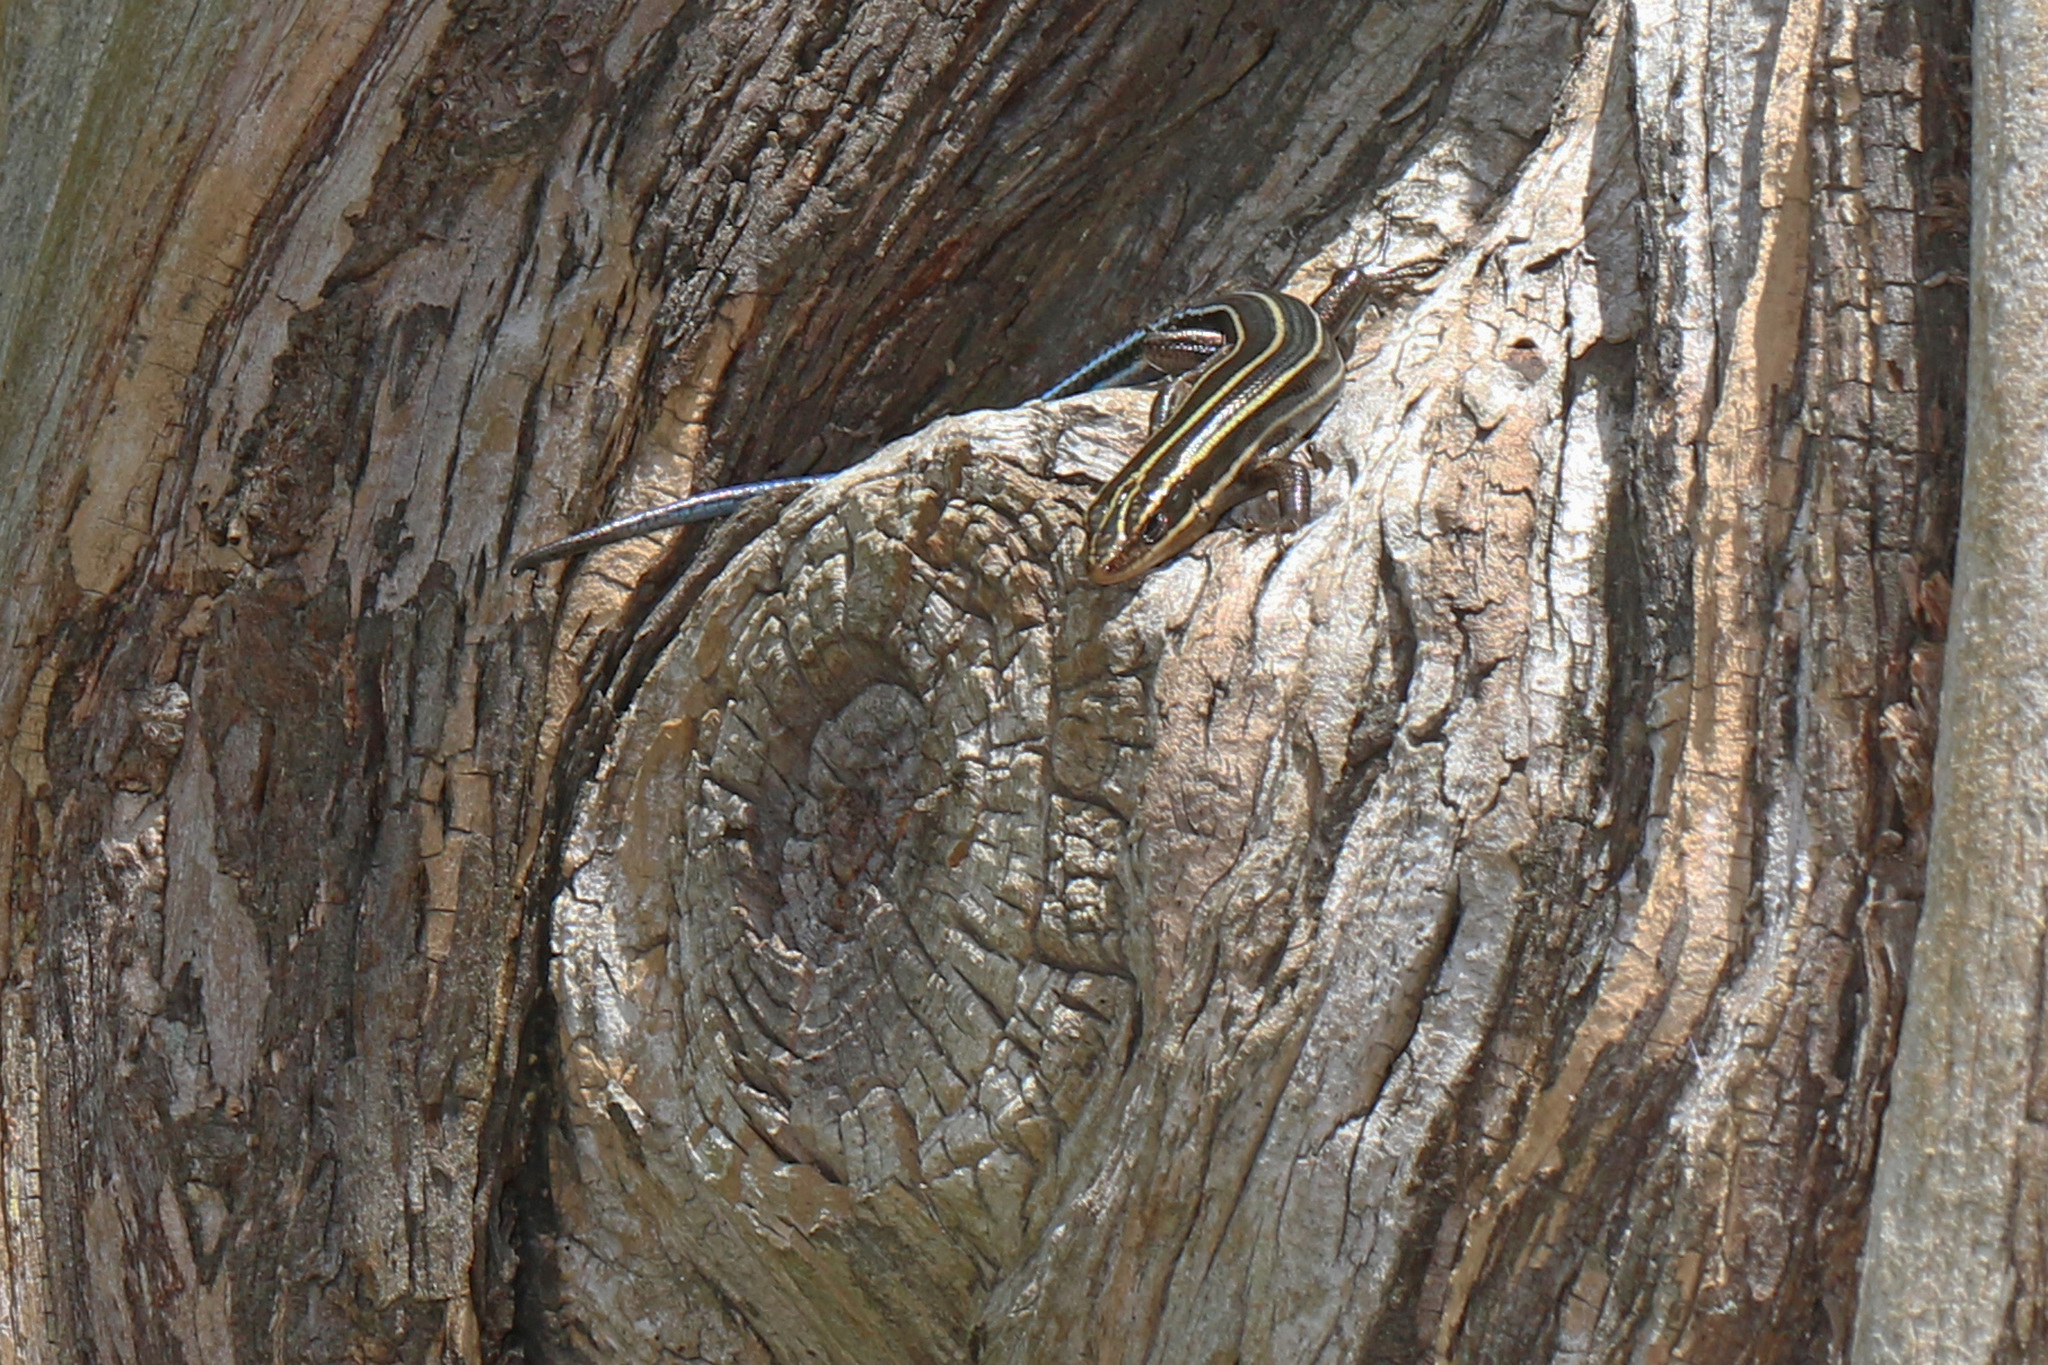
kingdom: Animalia
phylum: Chordata
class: Squamata
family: Scincidae
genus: Plestiodon
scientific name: Plestiodon fasciatus
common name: Five-lined skink
